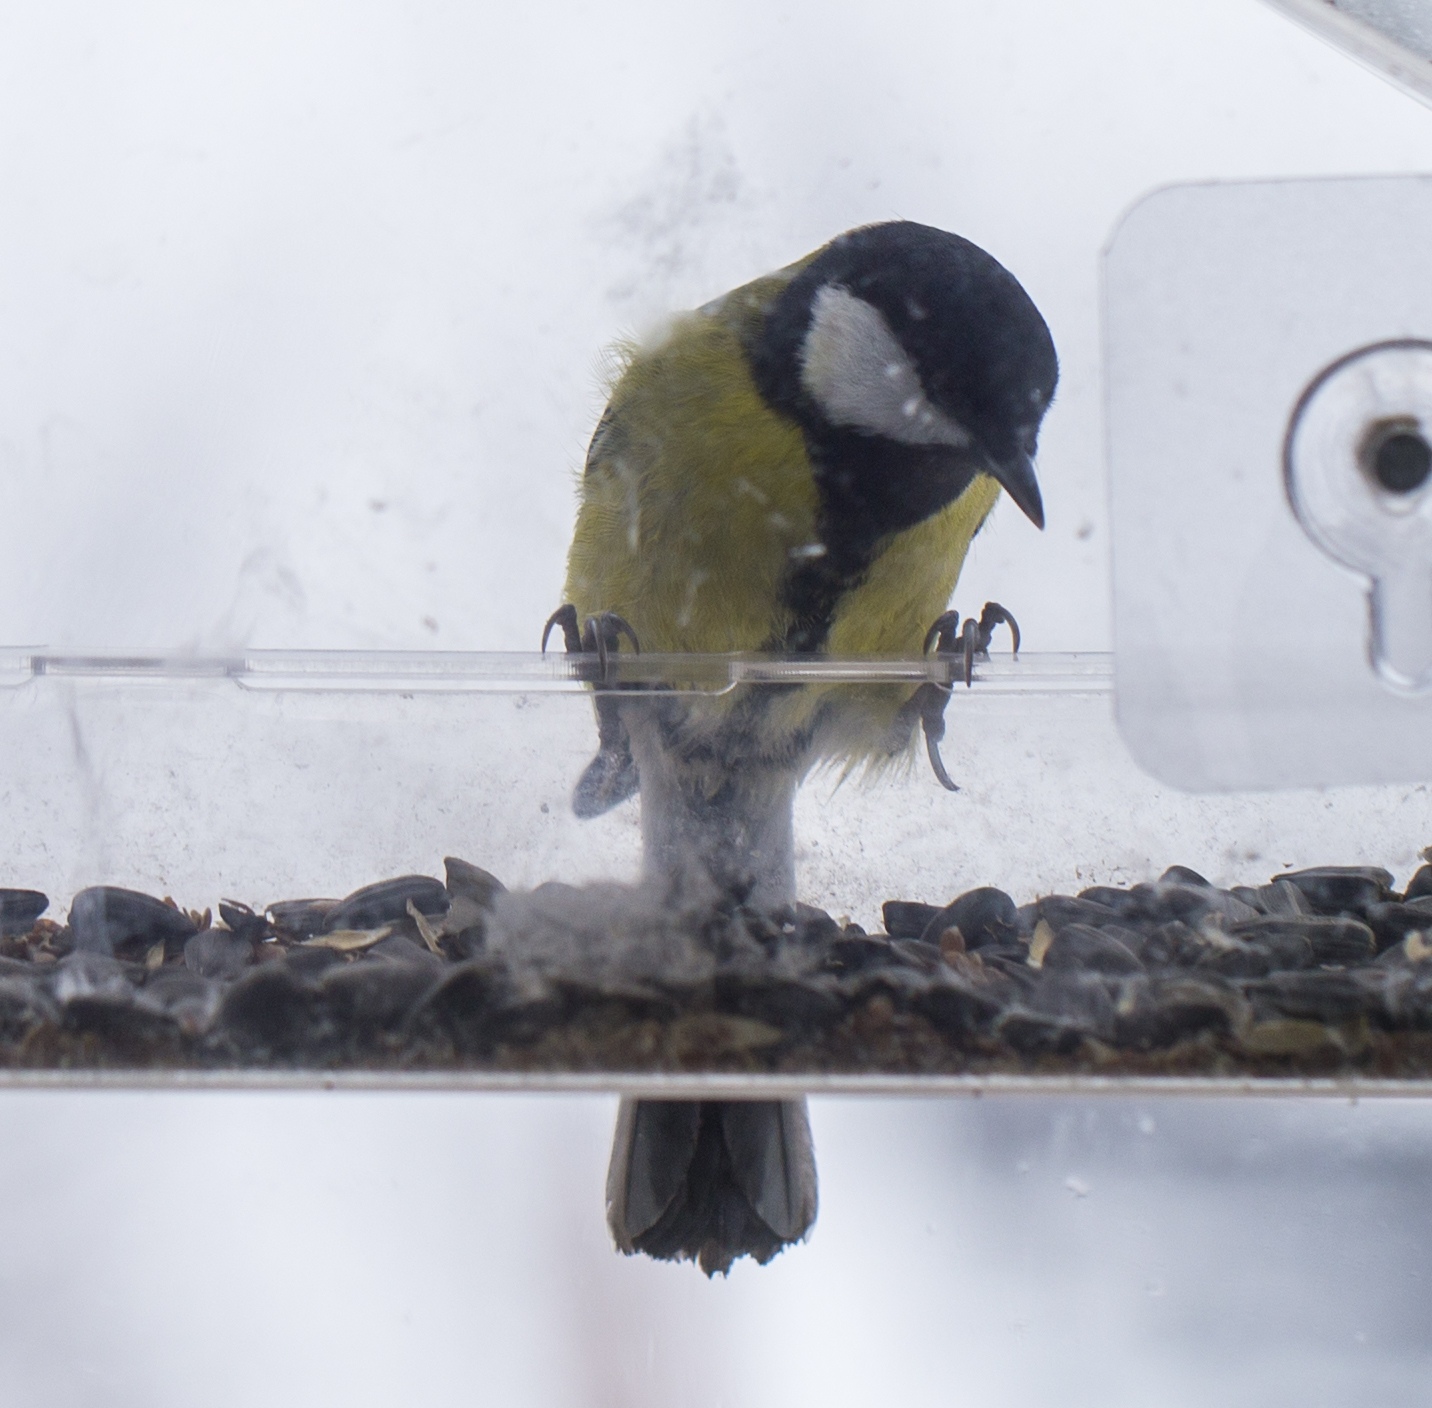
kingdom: Animalia
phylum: Chordata
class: Aves
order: Passeriformes
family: Paridae
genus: Parus
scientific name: Parus major
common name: Great tit
